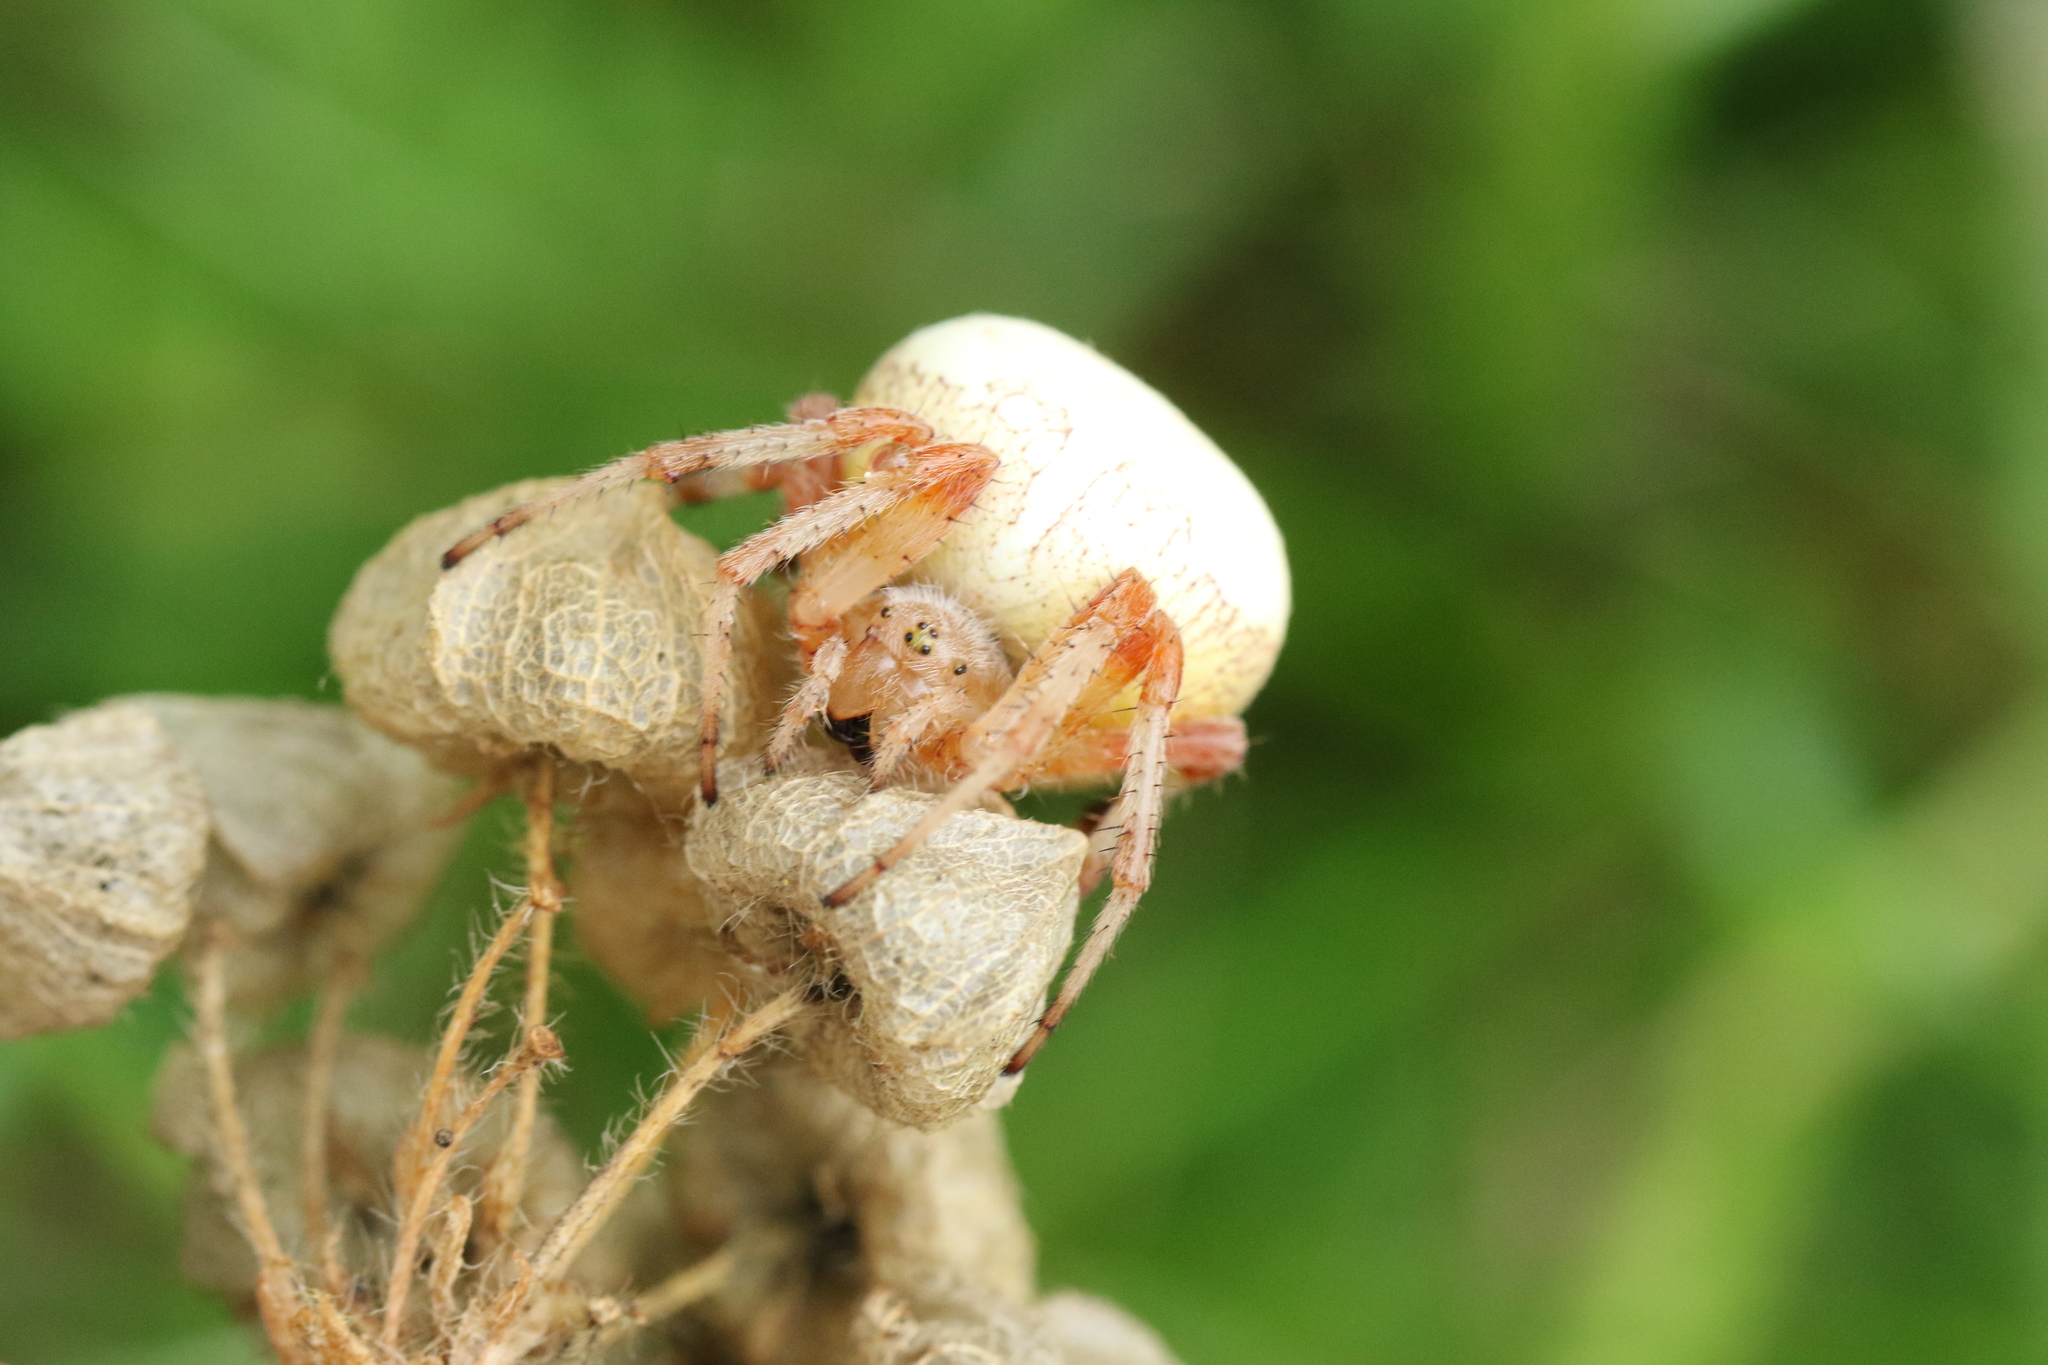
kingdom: Animalia
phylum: Arthropoda
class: Arachnida
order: Araneae
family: Araneidae
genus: Araneus
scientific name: Araneus marmoreus
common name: Marbled orbweaver
